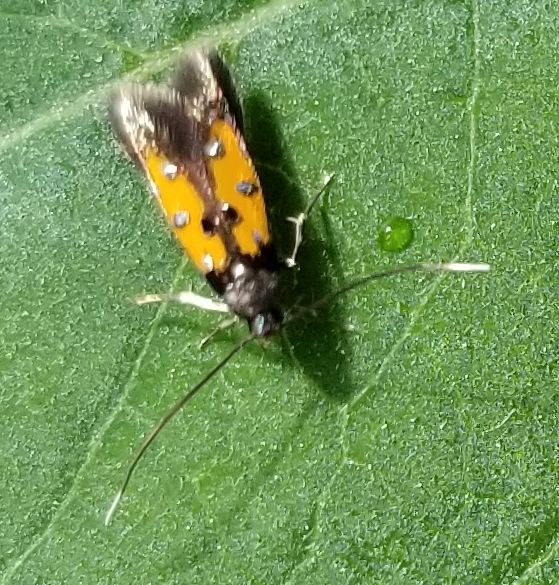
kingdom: Animalia
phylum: Arthropoda
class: Insecta
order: Lepidoptera
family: Elachistidae
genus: Chrysoclista
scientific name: Chrysoclista linneela
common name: Lime cosmet
